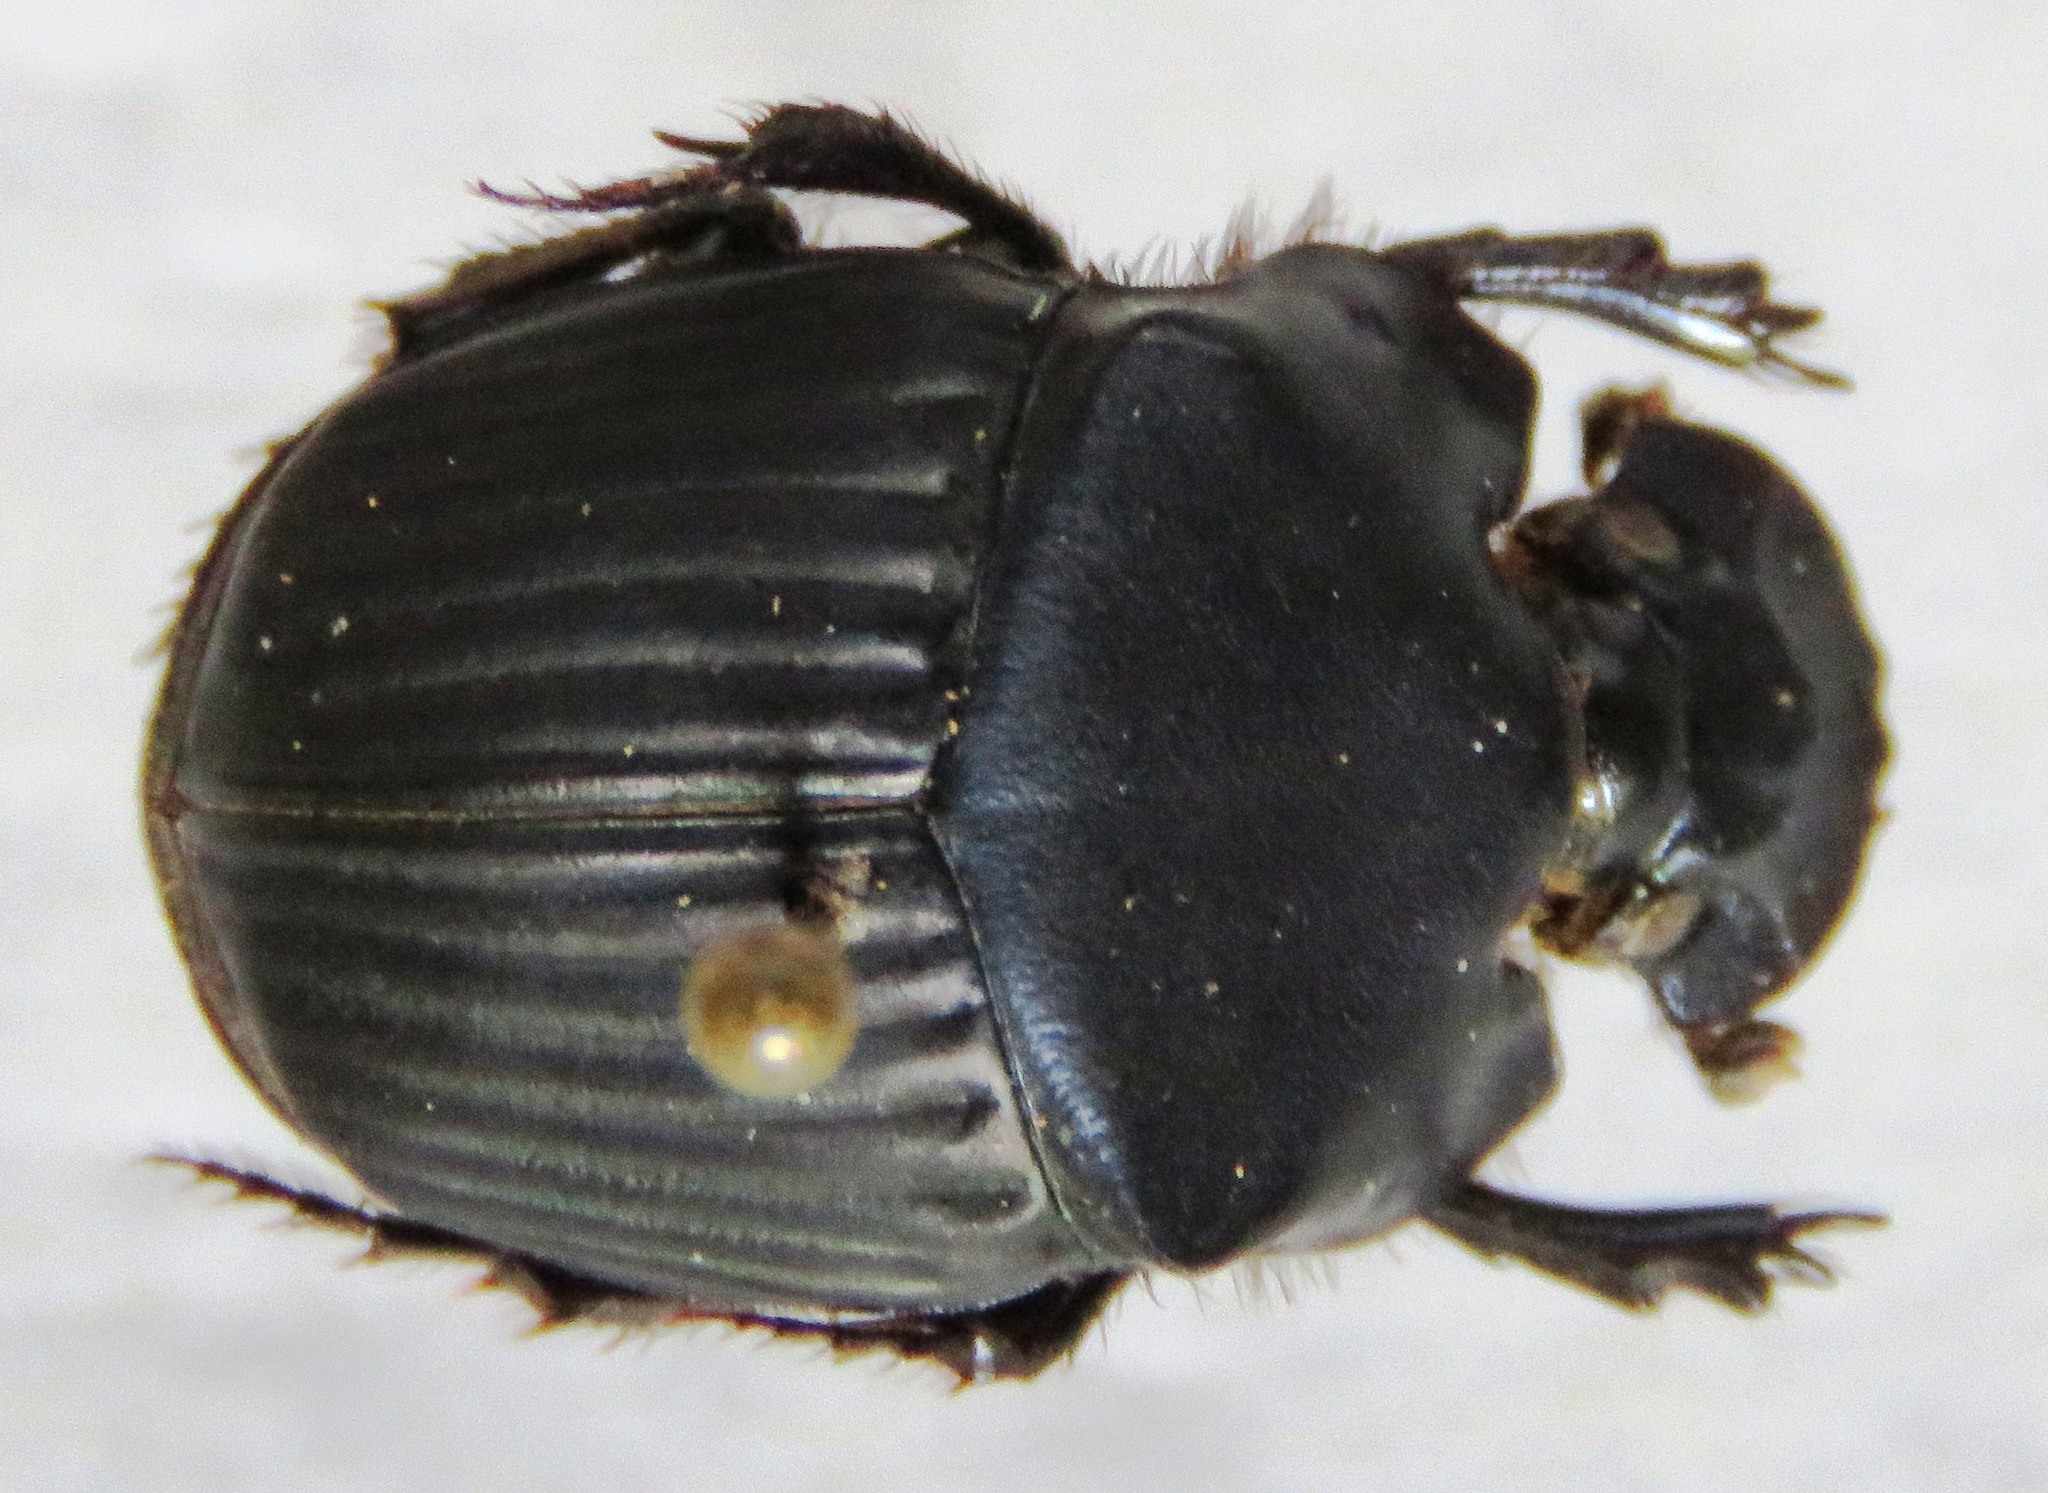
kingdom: Animalia
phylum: Arthropoda
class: Insecta
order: Coleoptera
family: Scarabaeidae
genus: Phanaeus
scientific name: Phanaeus pyrois
